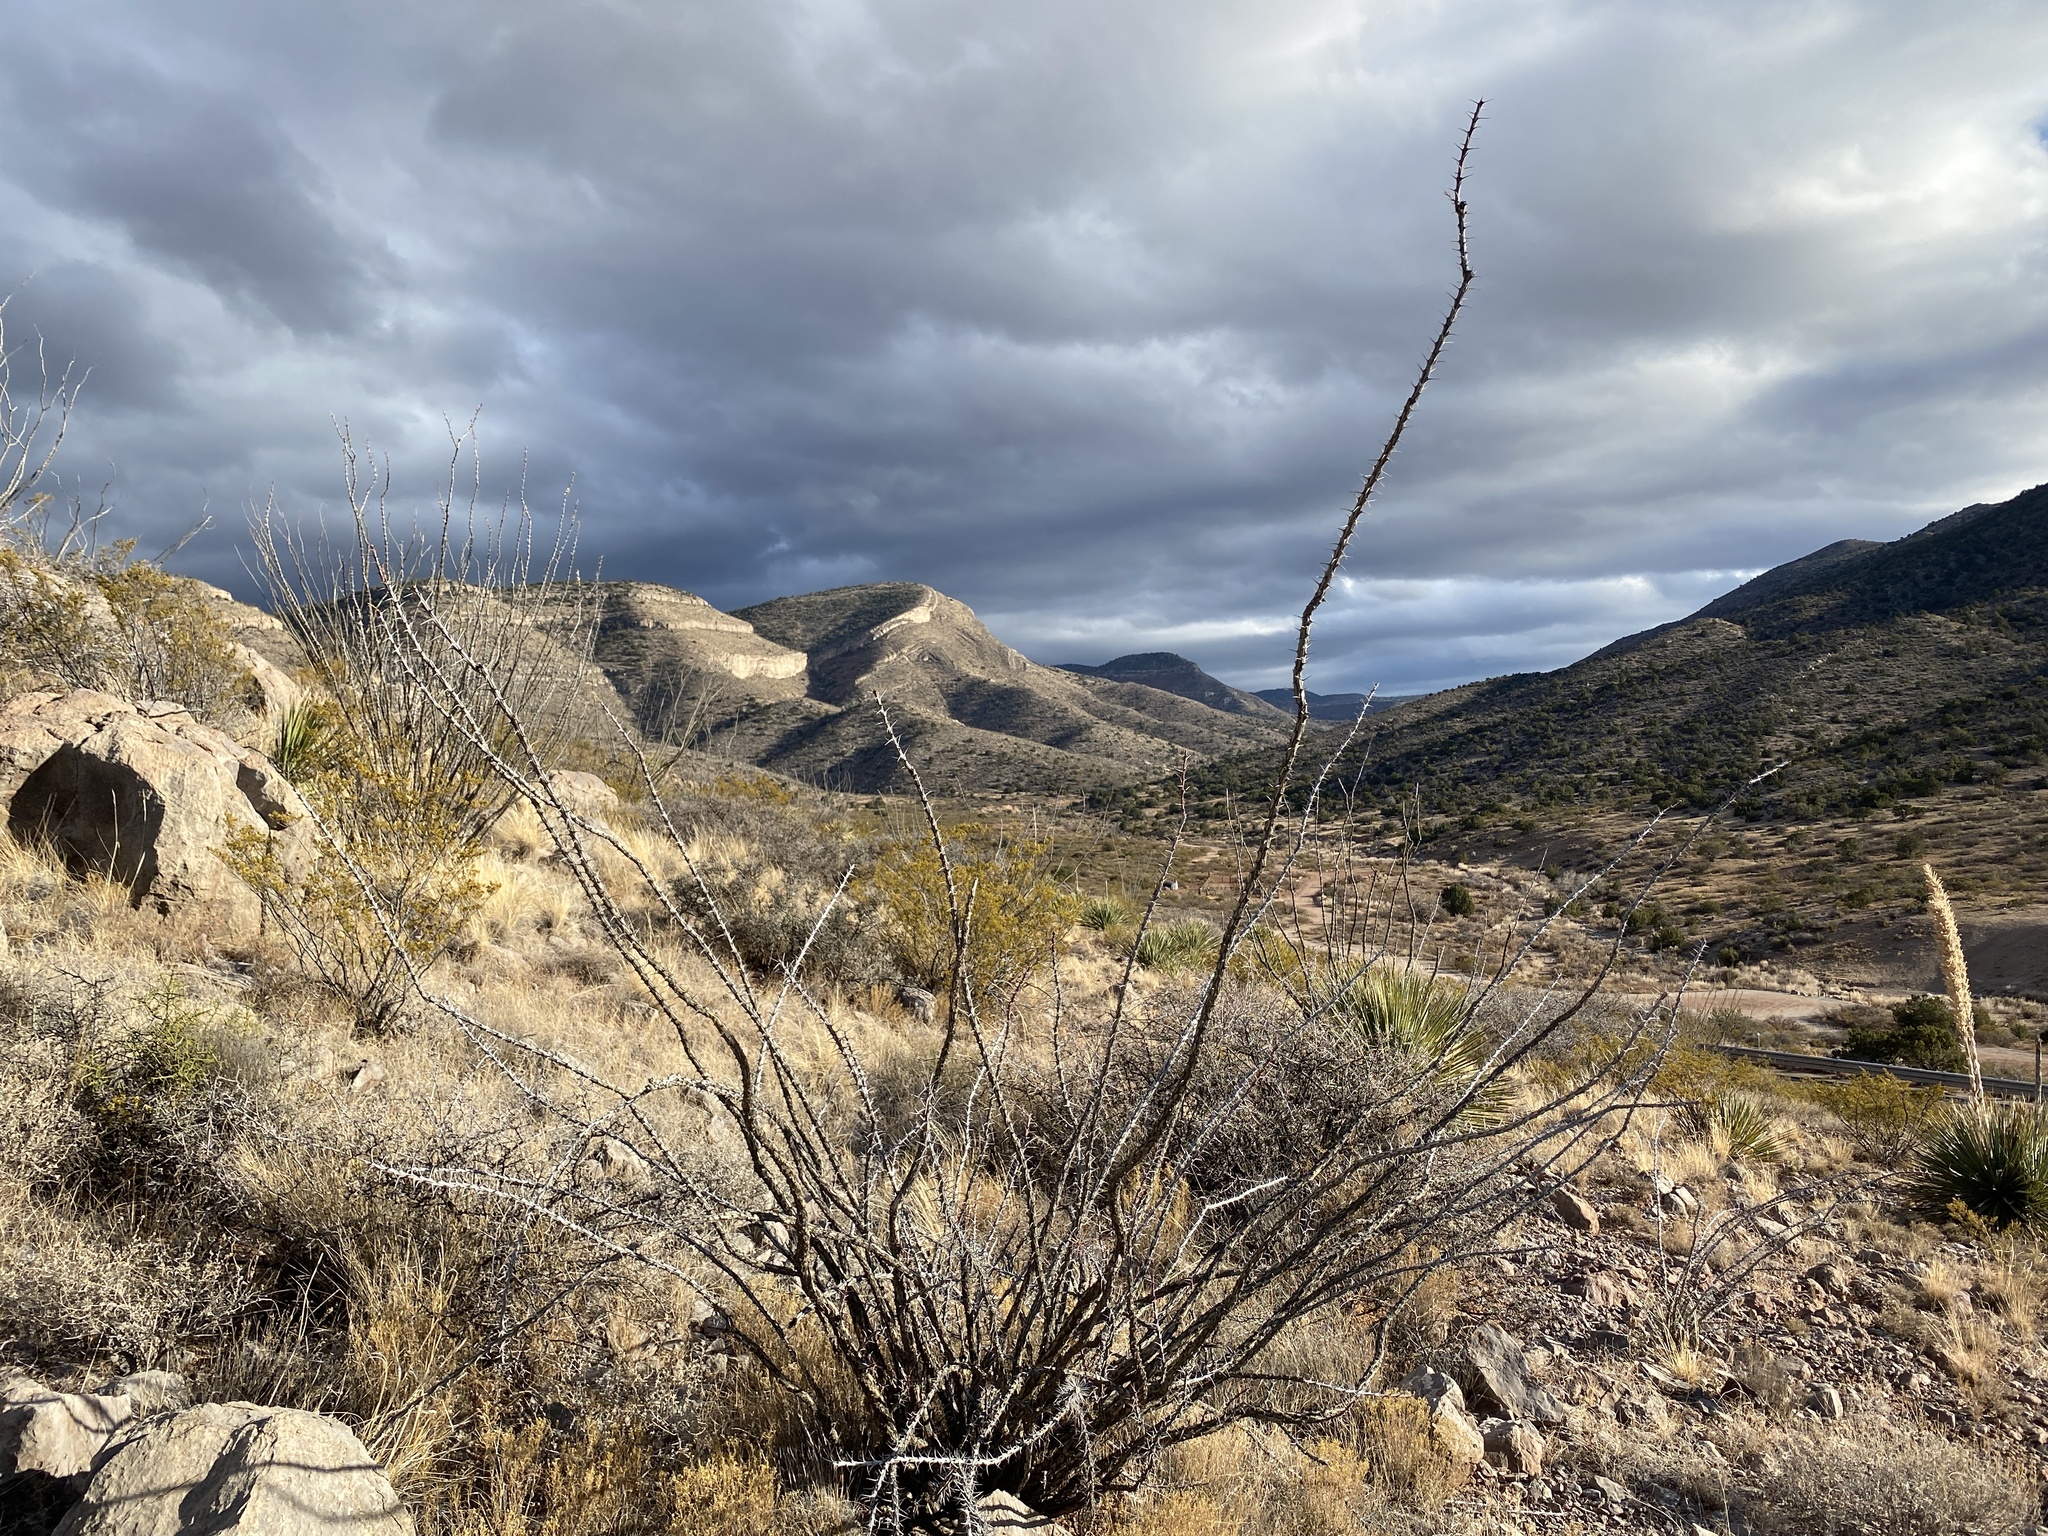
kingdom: Plantae
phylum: Tracheophyta
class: Magnoliopsida
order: Ericales
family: Fouquieriaceae
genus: Fouquieria
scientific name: Fouquieria splendens
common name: Vine-cactus
